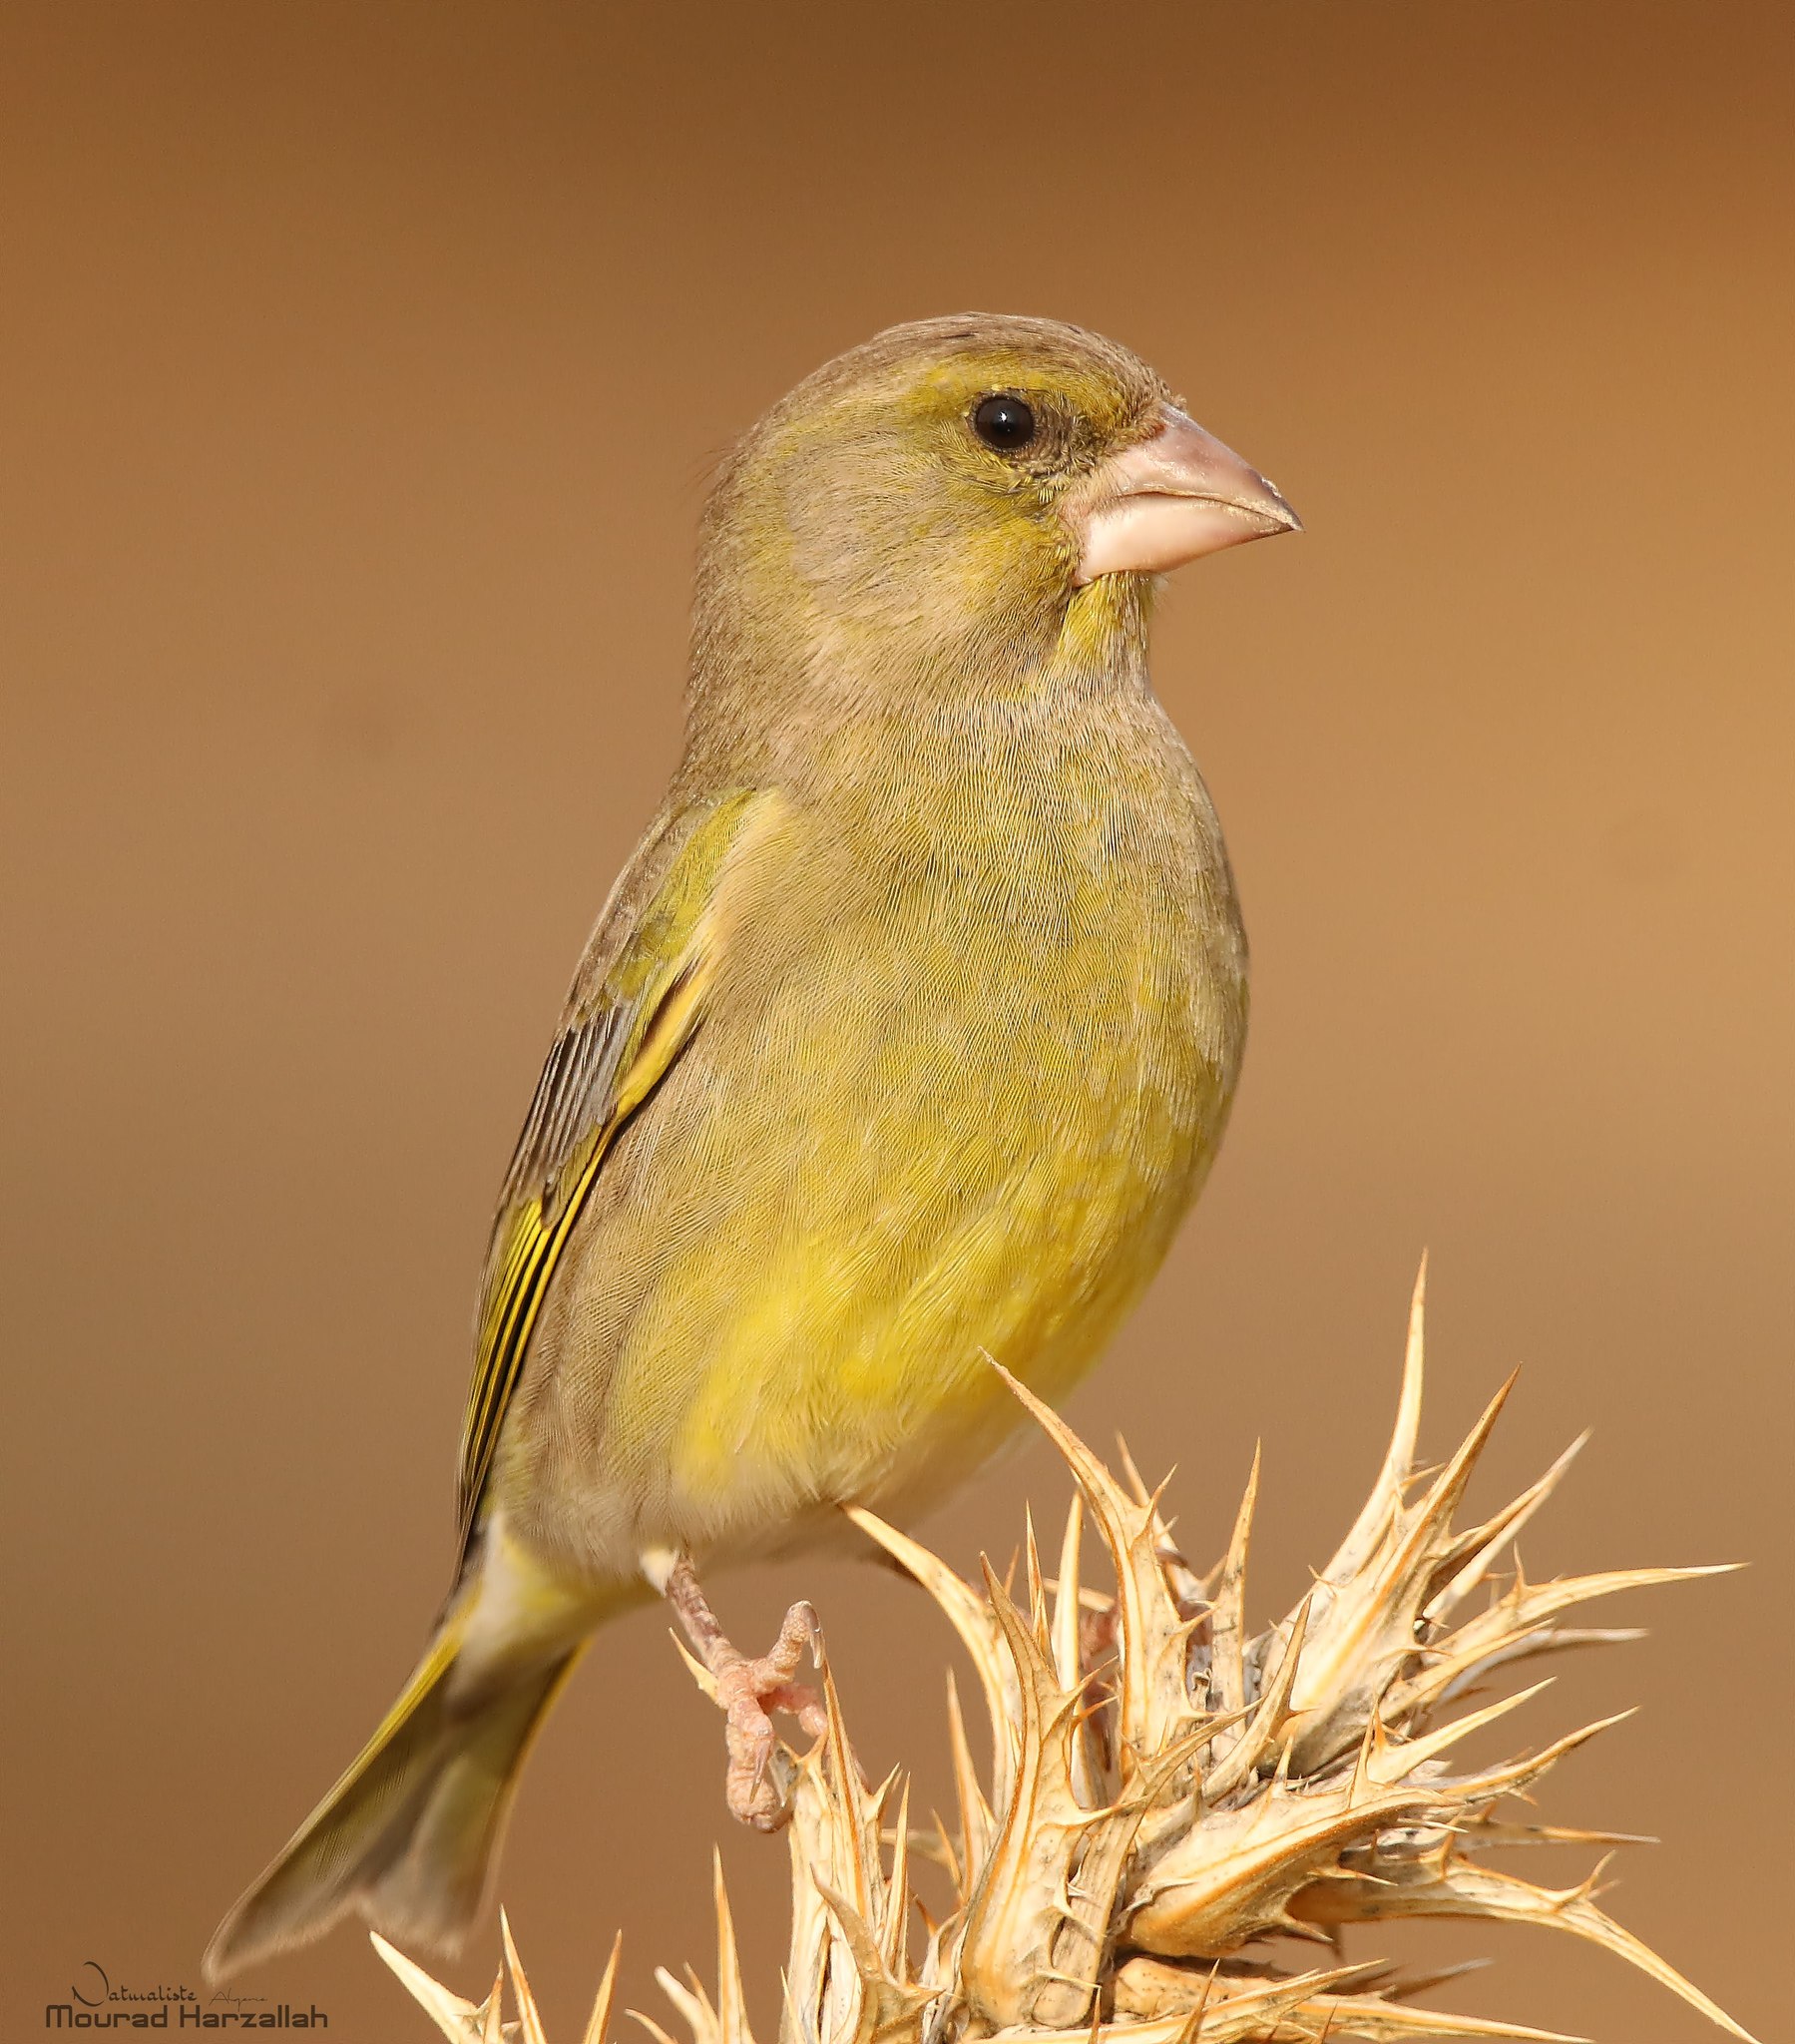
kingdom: Plantae
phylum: Tracheophyta
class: Liliopsida
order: Poales
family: Poaceae
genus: Chloris
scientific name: Chloris chloris
